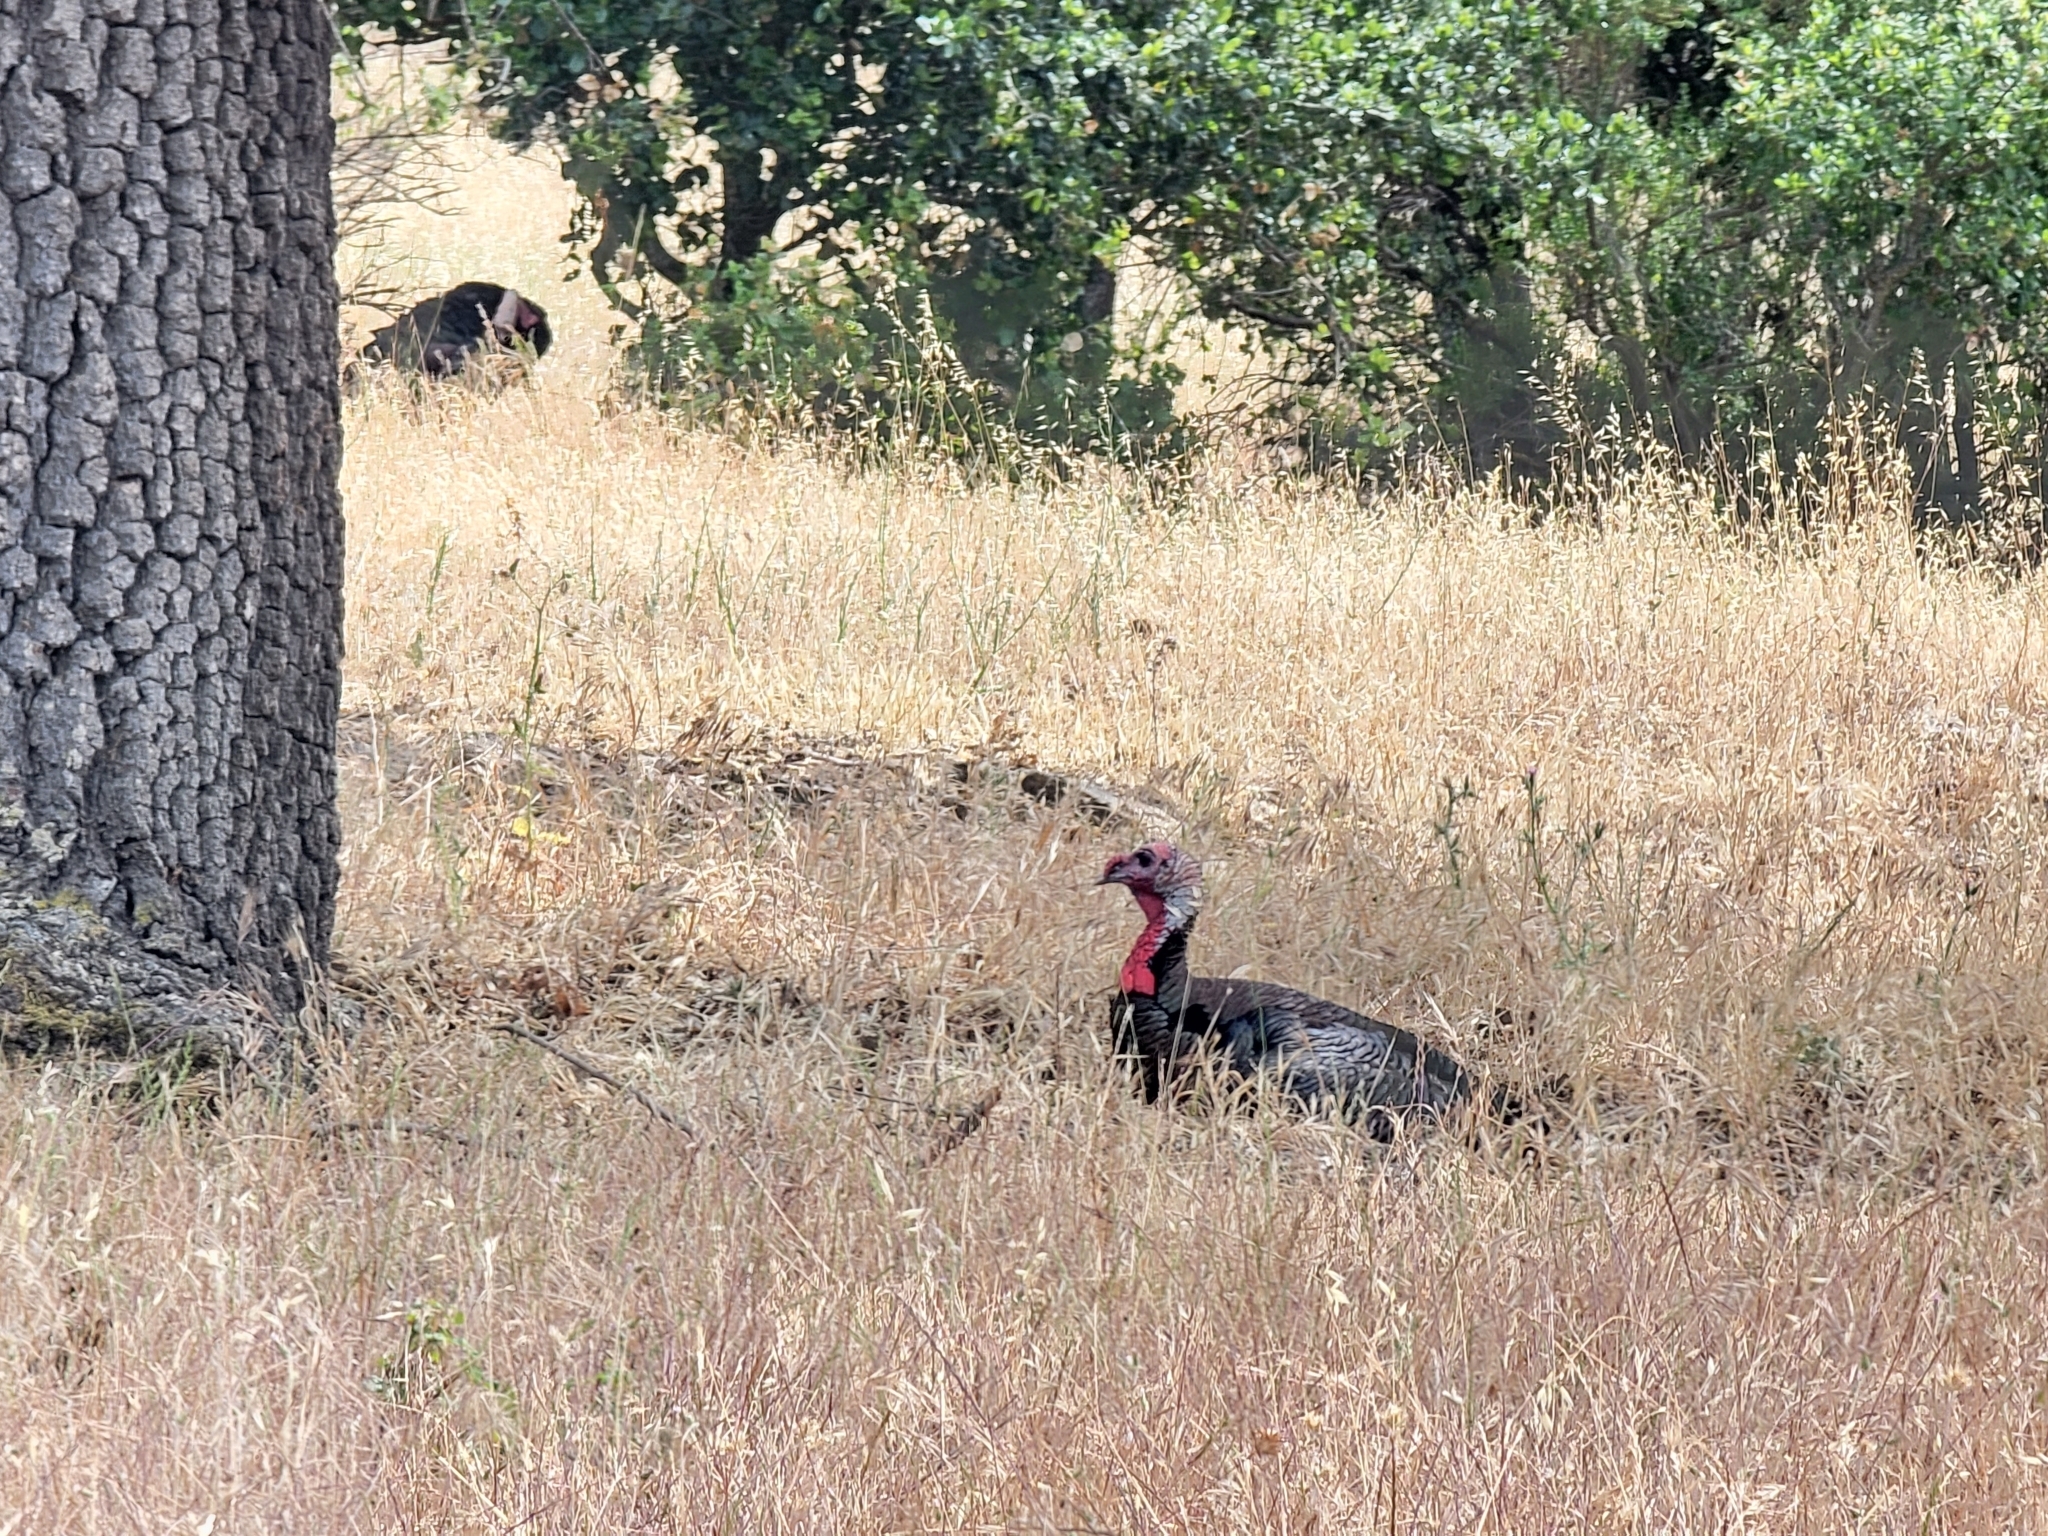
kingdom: Animalia
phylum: Chordata
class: Aves
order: Galliformes
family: Phasianidae
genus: Meleagris
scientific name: Meleagris gallopavo
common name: Wild turkey
